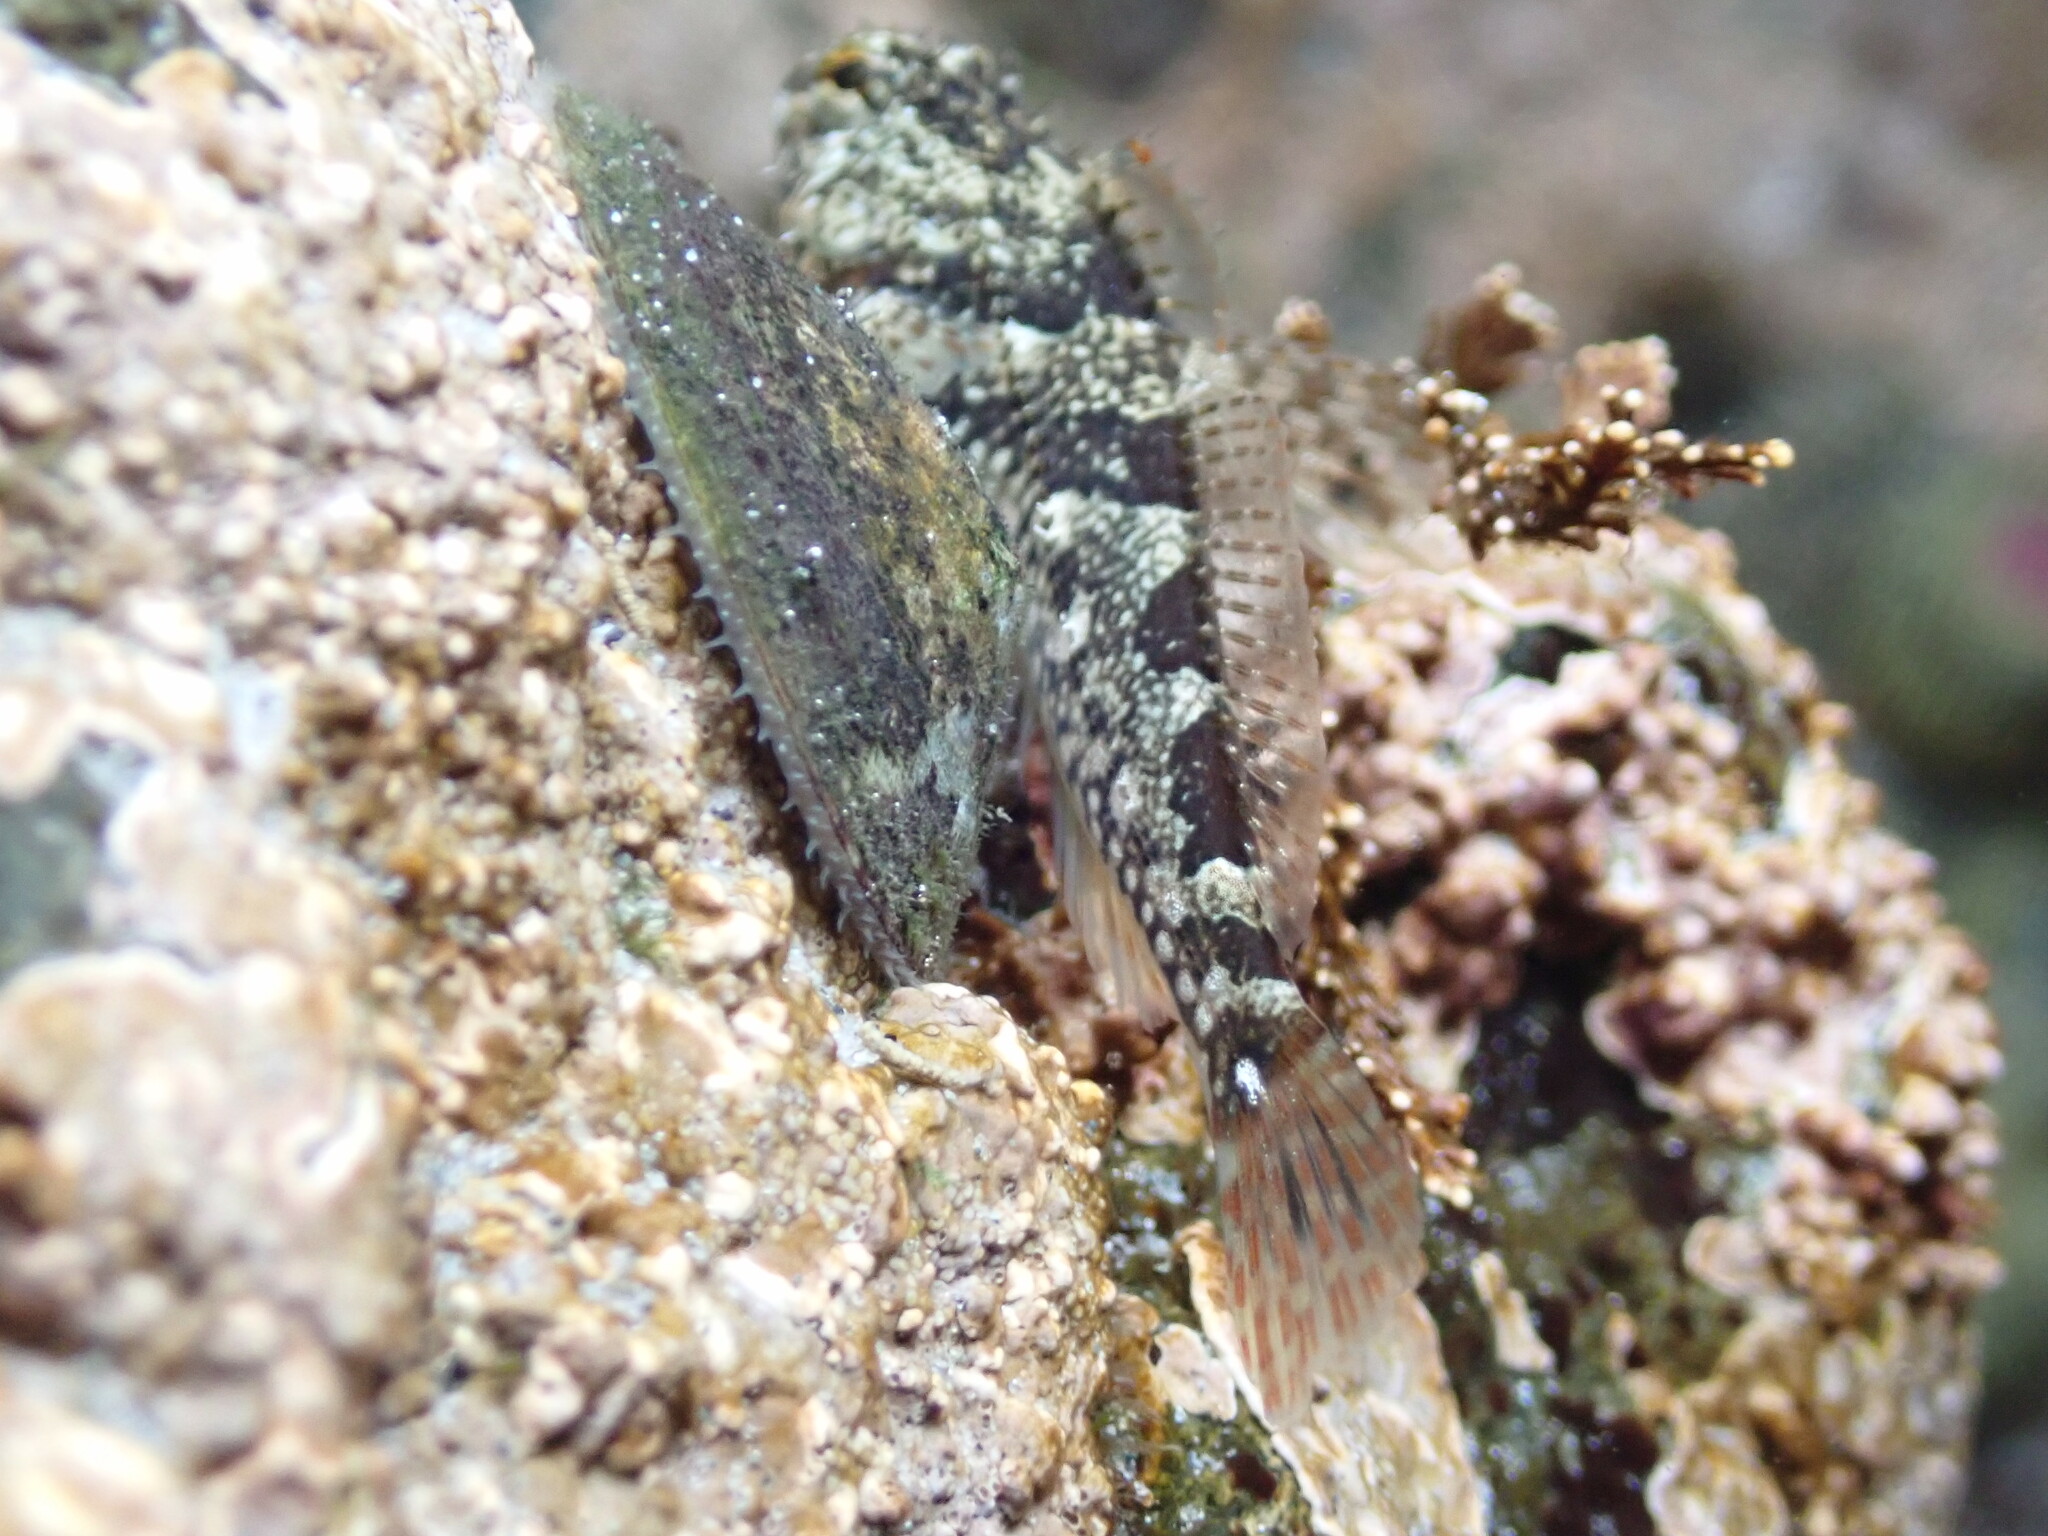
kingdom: Animalia
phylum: Chordata
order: Scorpaeniformes
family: Cottidae
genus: Oligocottus
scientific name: Oligocottus maculosus
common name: Tidepool sculpin
